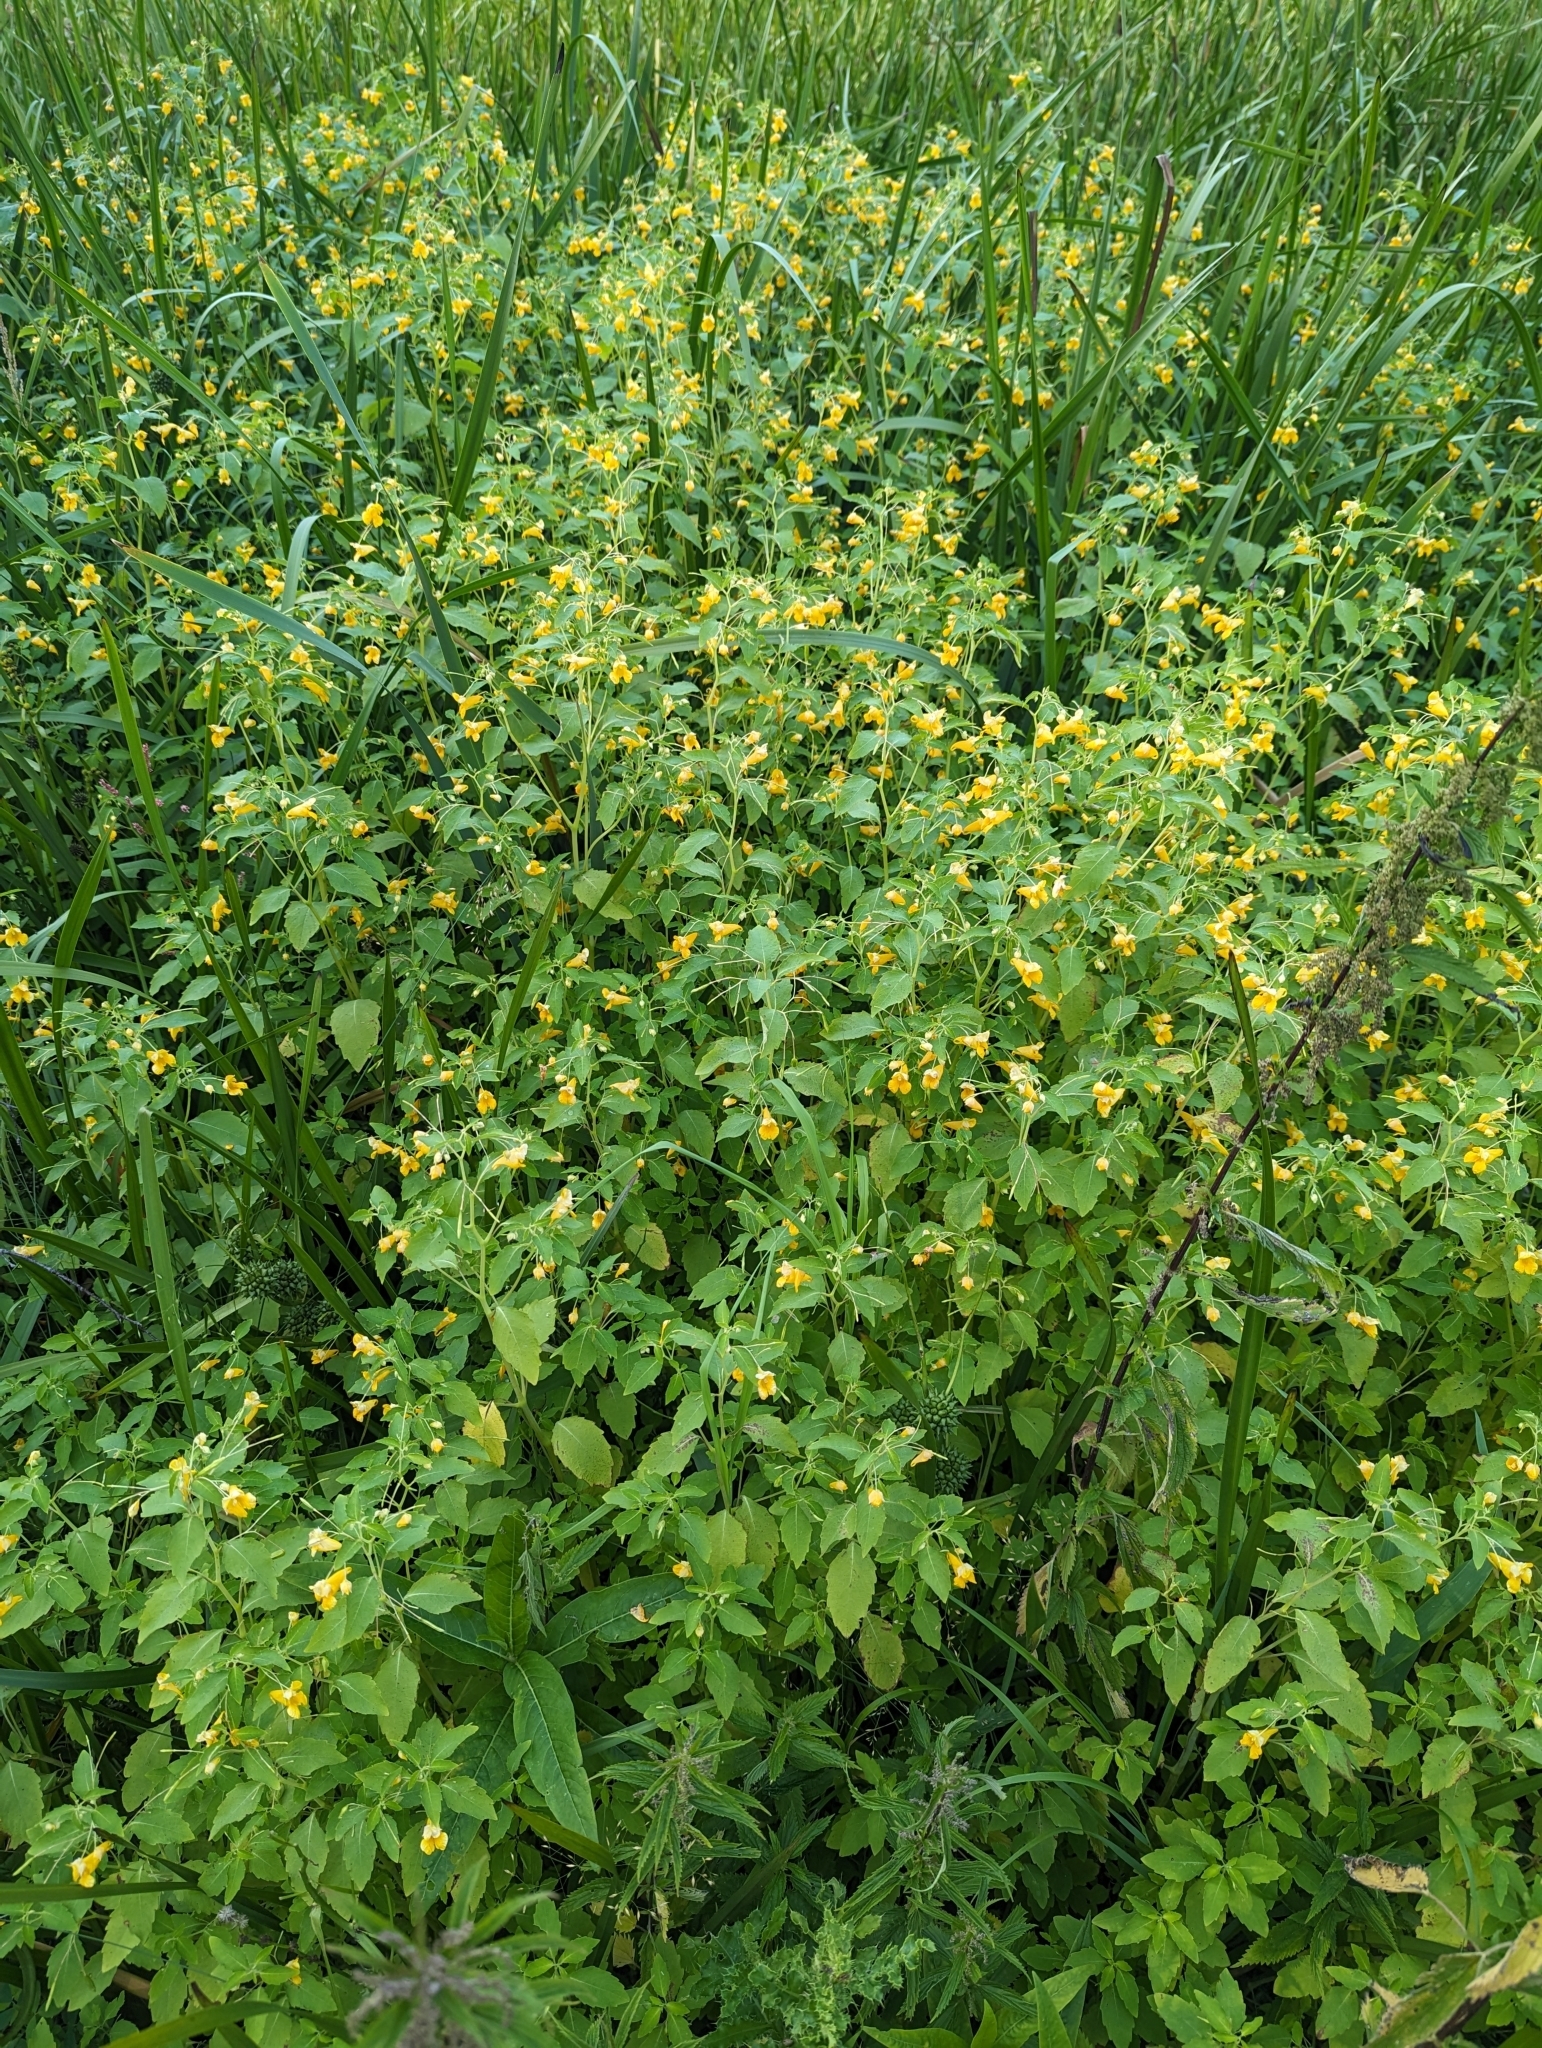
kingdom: Plantae
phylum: Tracheophyta
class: Magnoliopsida
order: Ericales
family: Balsaminaceae
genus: Impatiens
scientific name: Impatiens capensis
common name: Orange balsam
